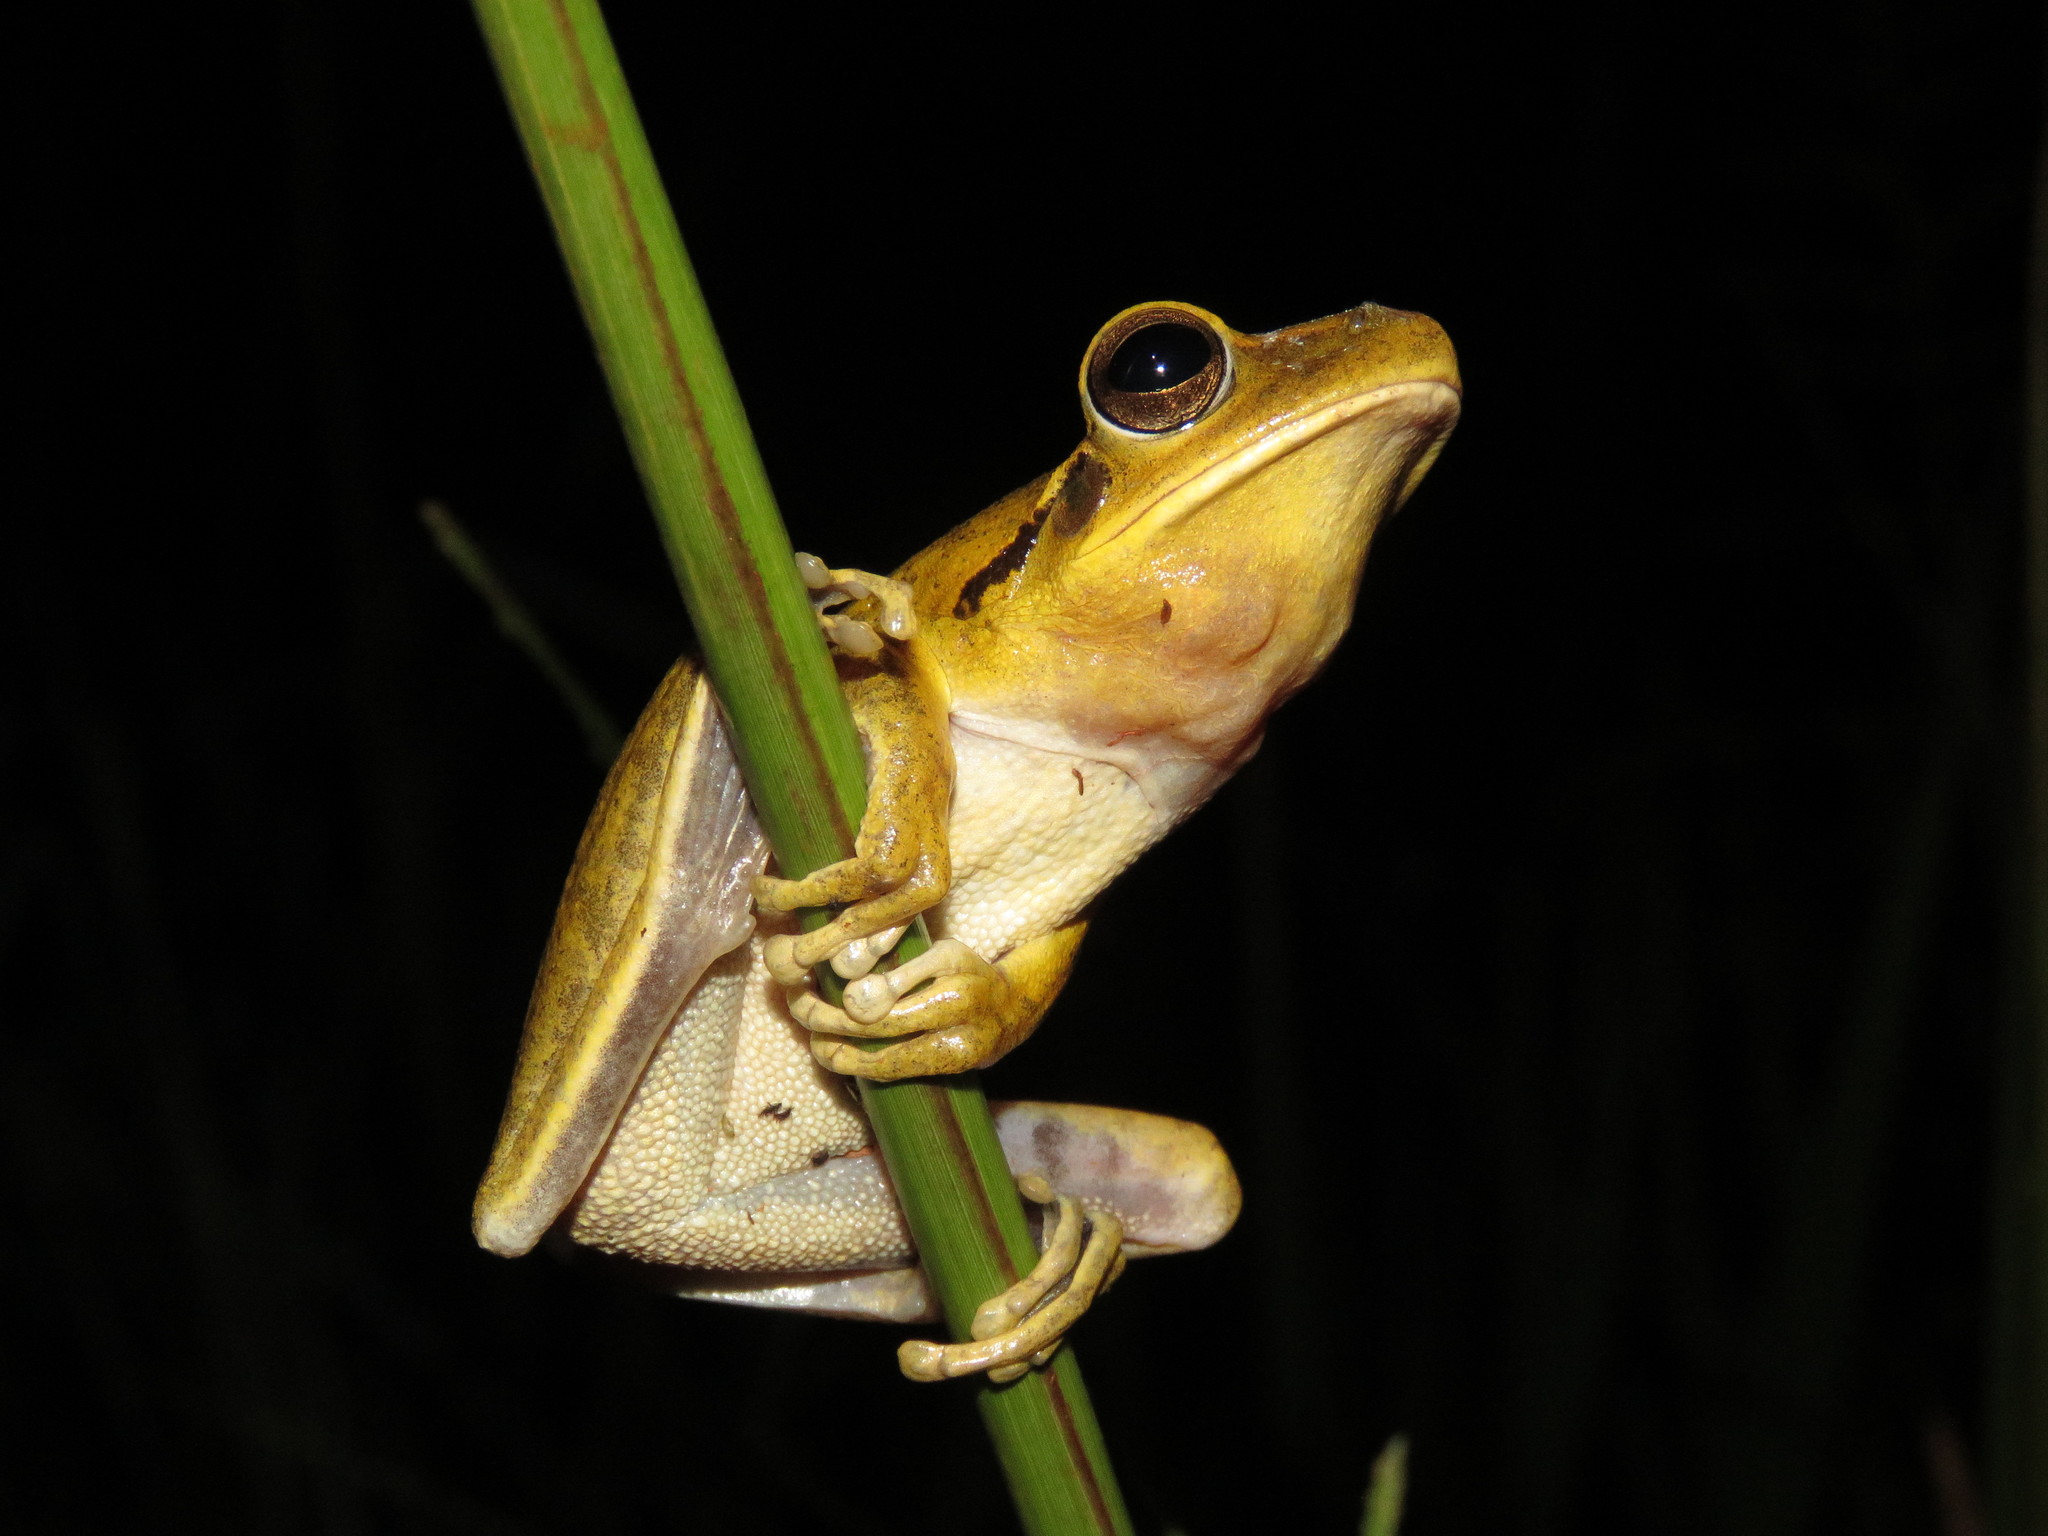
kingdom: Animalia
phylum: Chordata
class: Amphibia
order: Anura
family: Hylidae
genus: Boana
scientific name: Boana raniceps
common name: Chaco treefrog
